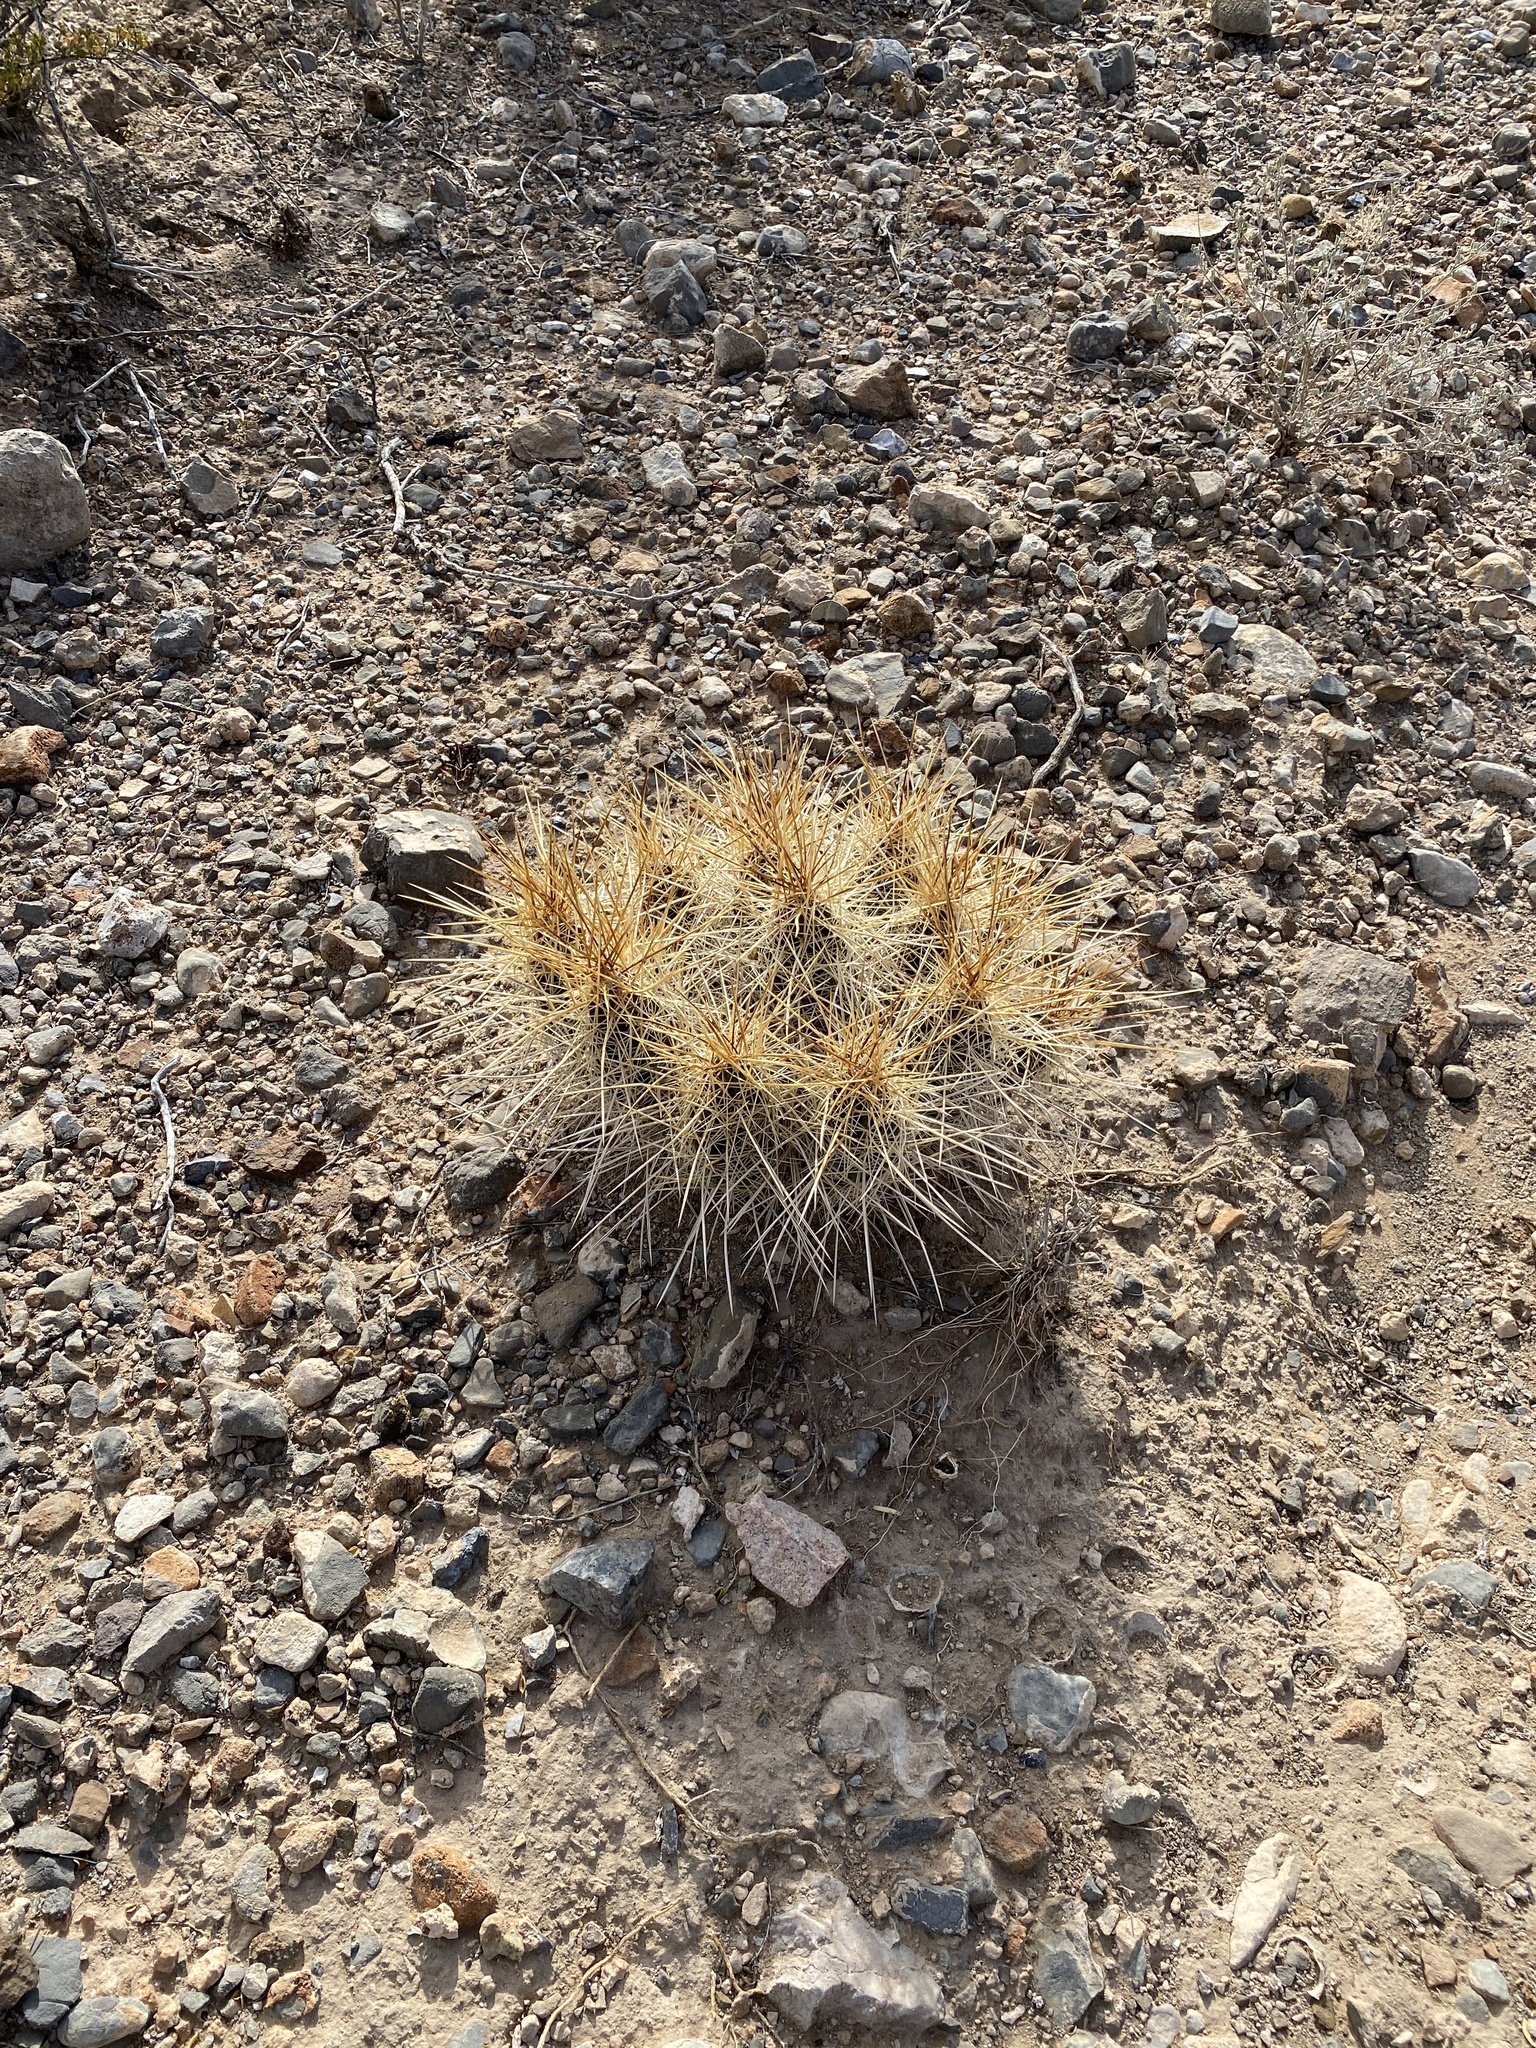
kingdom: Plantae
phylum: Tracheophyta
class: Magnoliopsida
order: Caryophyllales
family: Cactaceae
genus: Echinocereus
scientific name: Echinocereus stramineus
